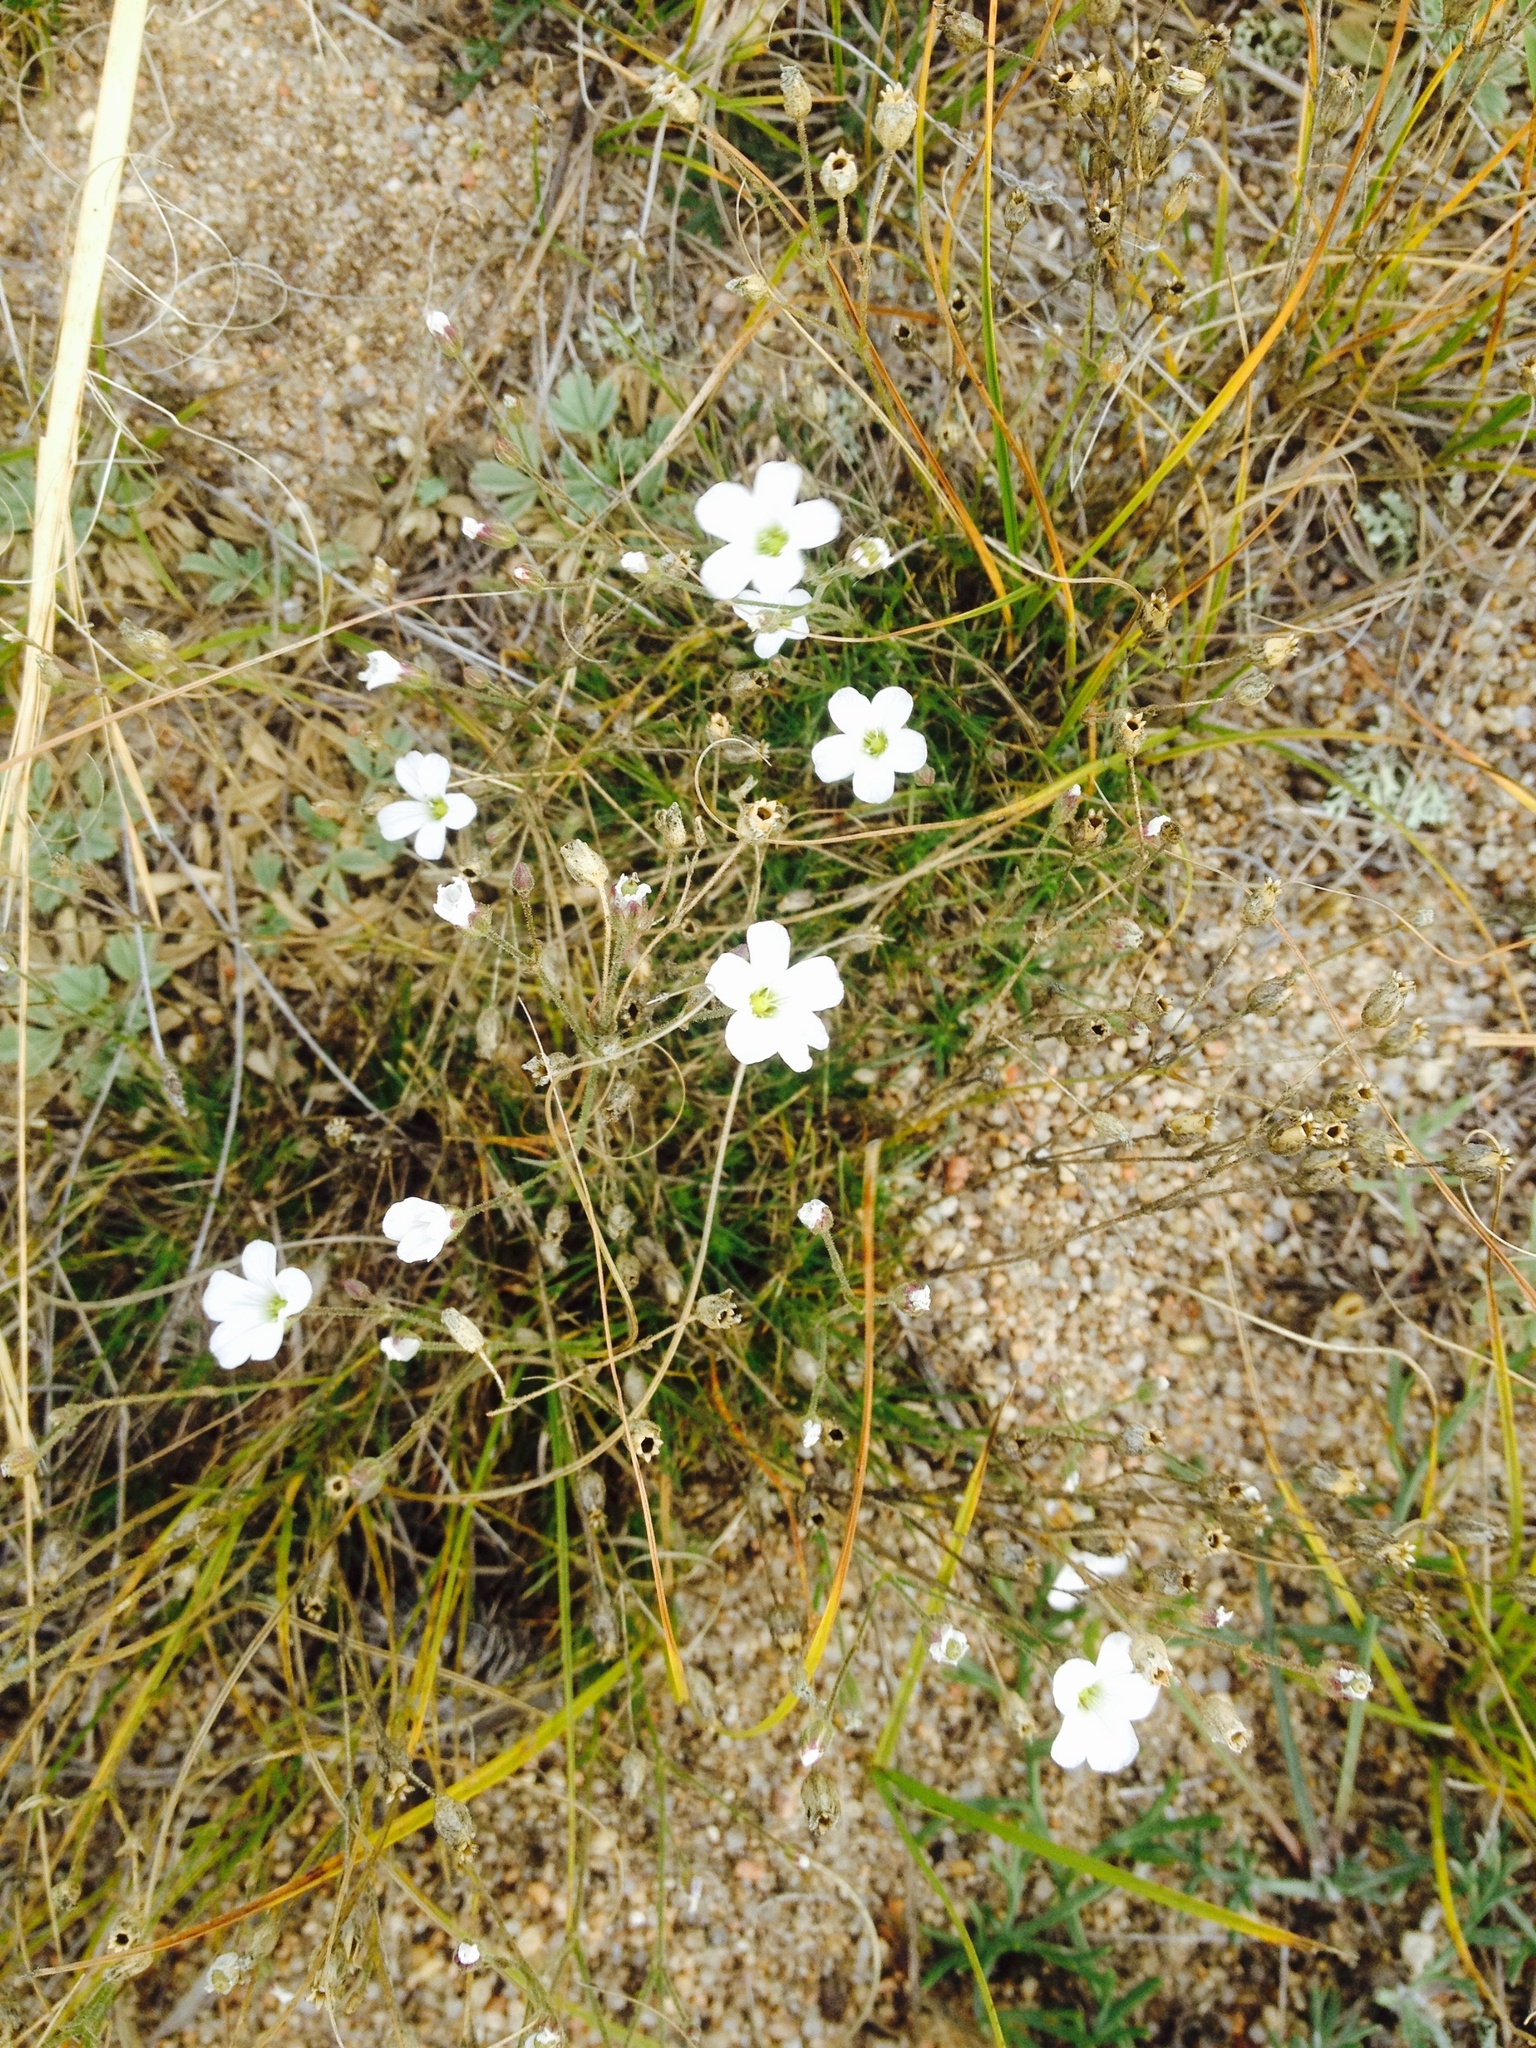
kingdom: Plantae
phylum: Tracheophyta
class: Magnoliopsida
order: Caryophyllales
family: Caryophyllaceae
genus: Eremogone
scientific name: Eremogone meyeri
